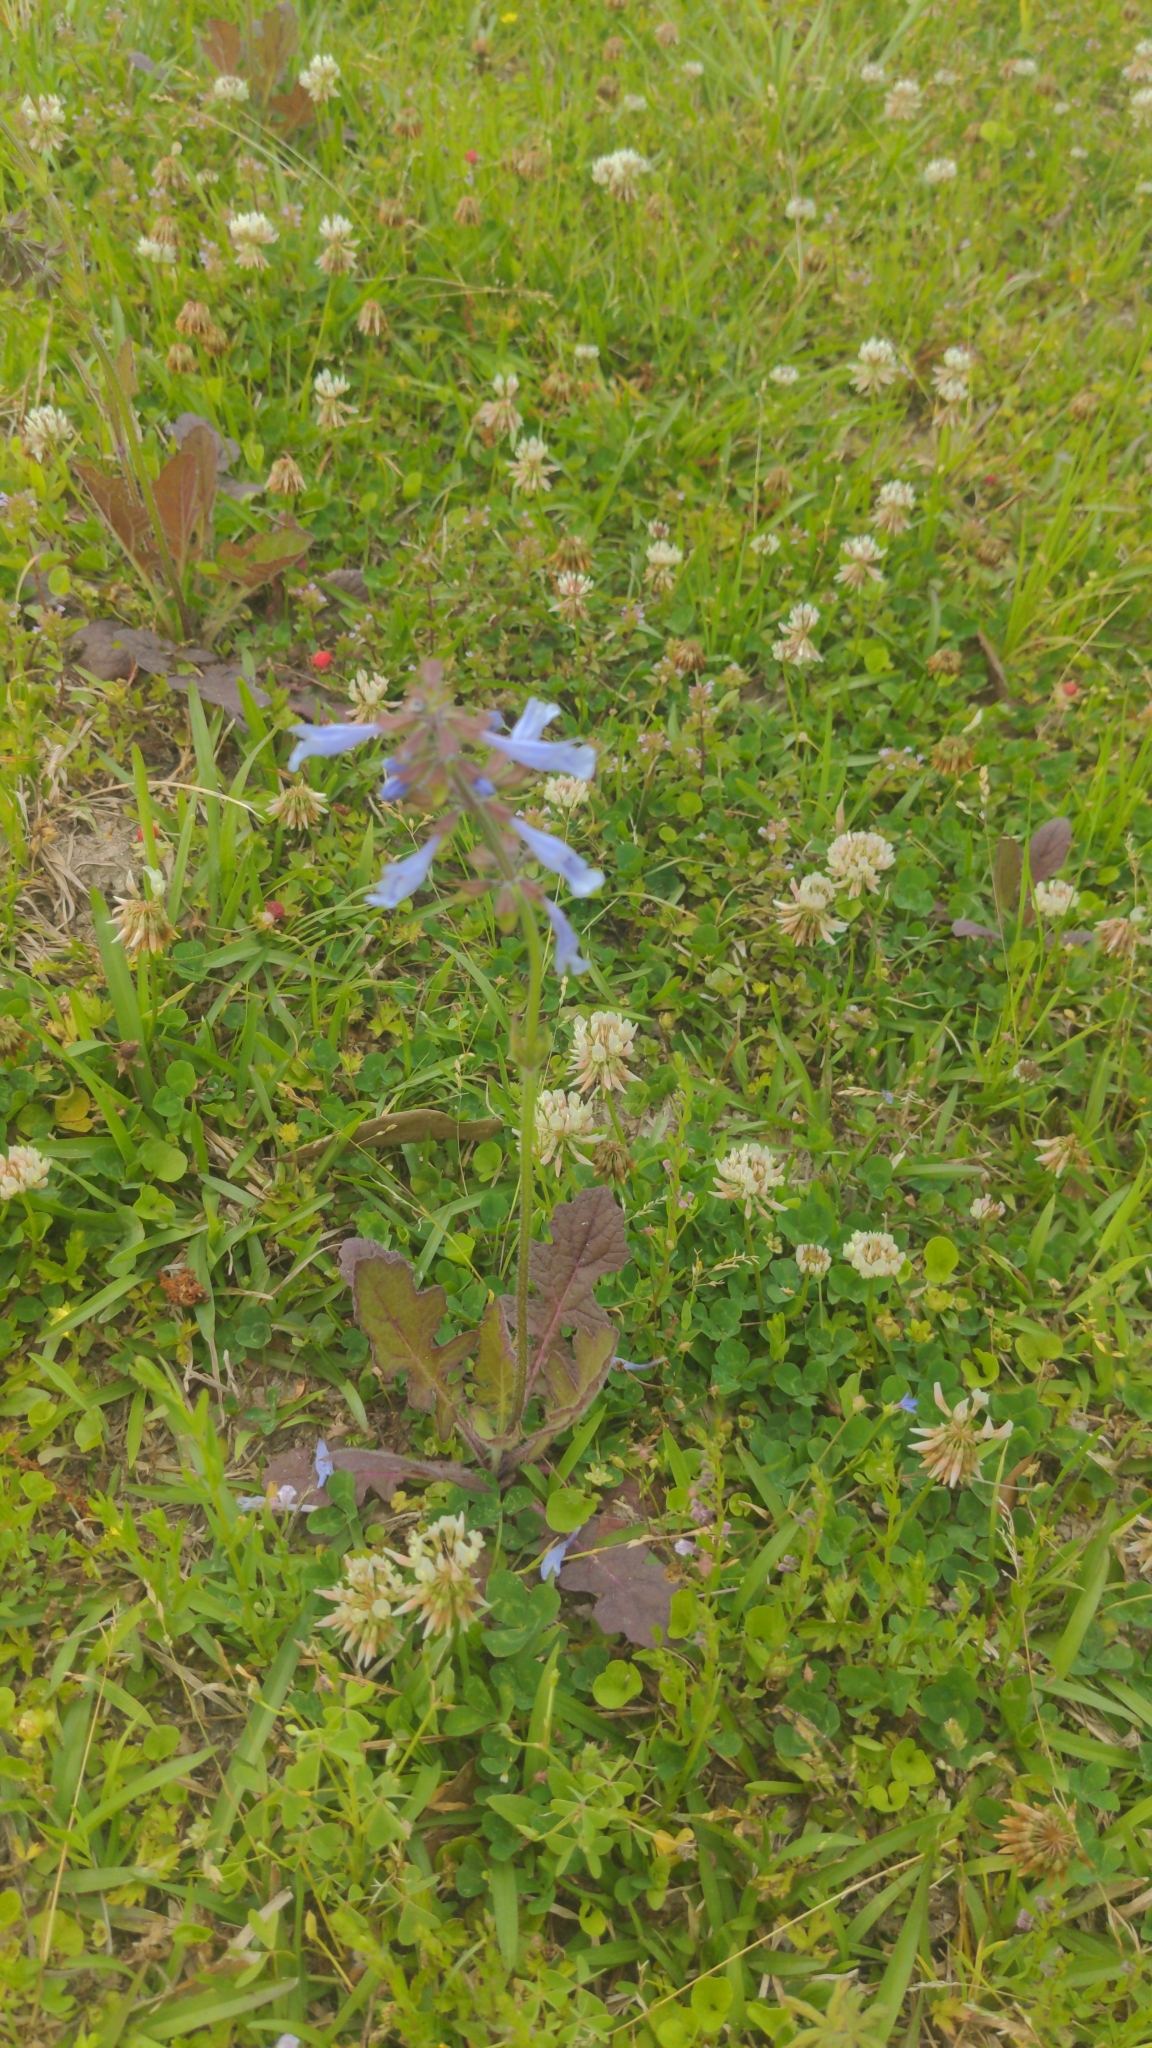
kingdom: Plantae
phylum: Tracheophyta
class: Magnoliopsida
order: Lamiales
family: Lamiaceae
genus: Salvia
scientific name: Salvia lyrata
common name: Cancerweed
